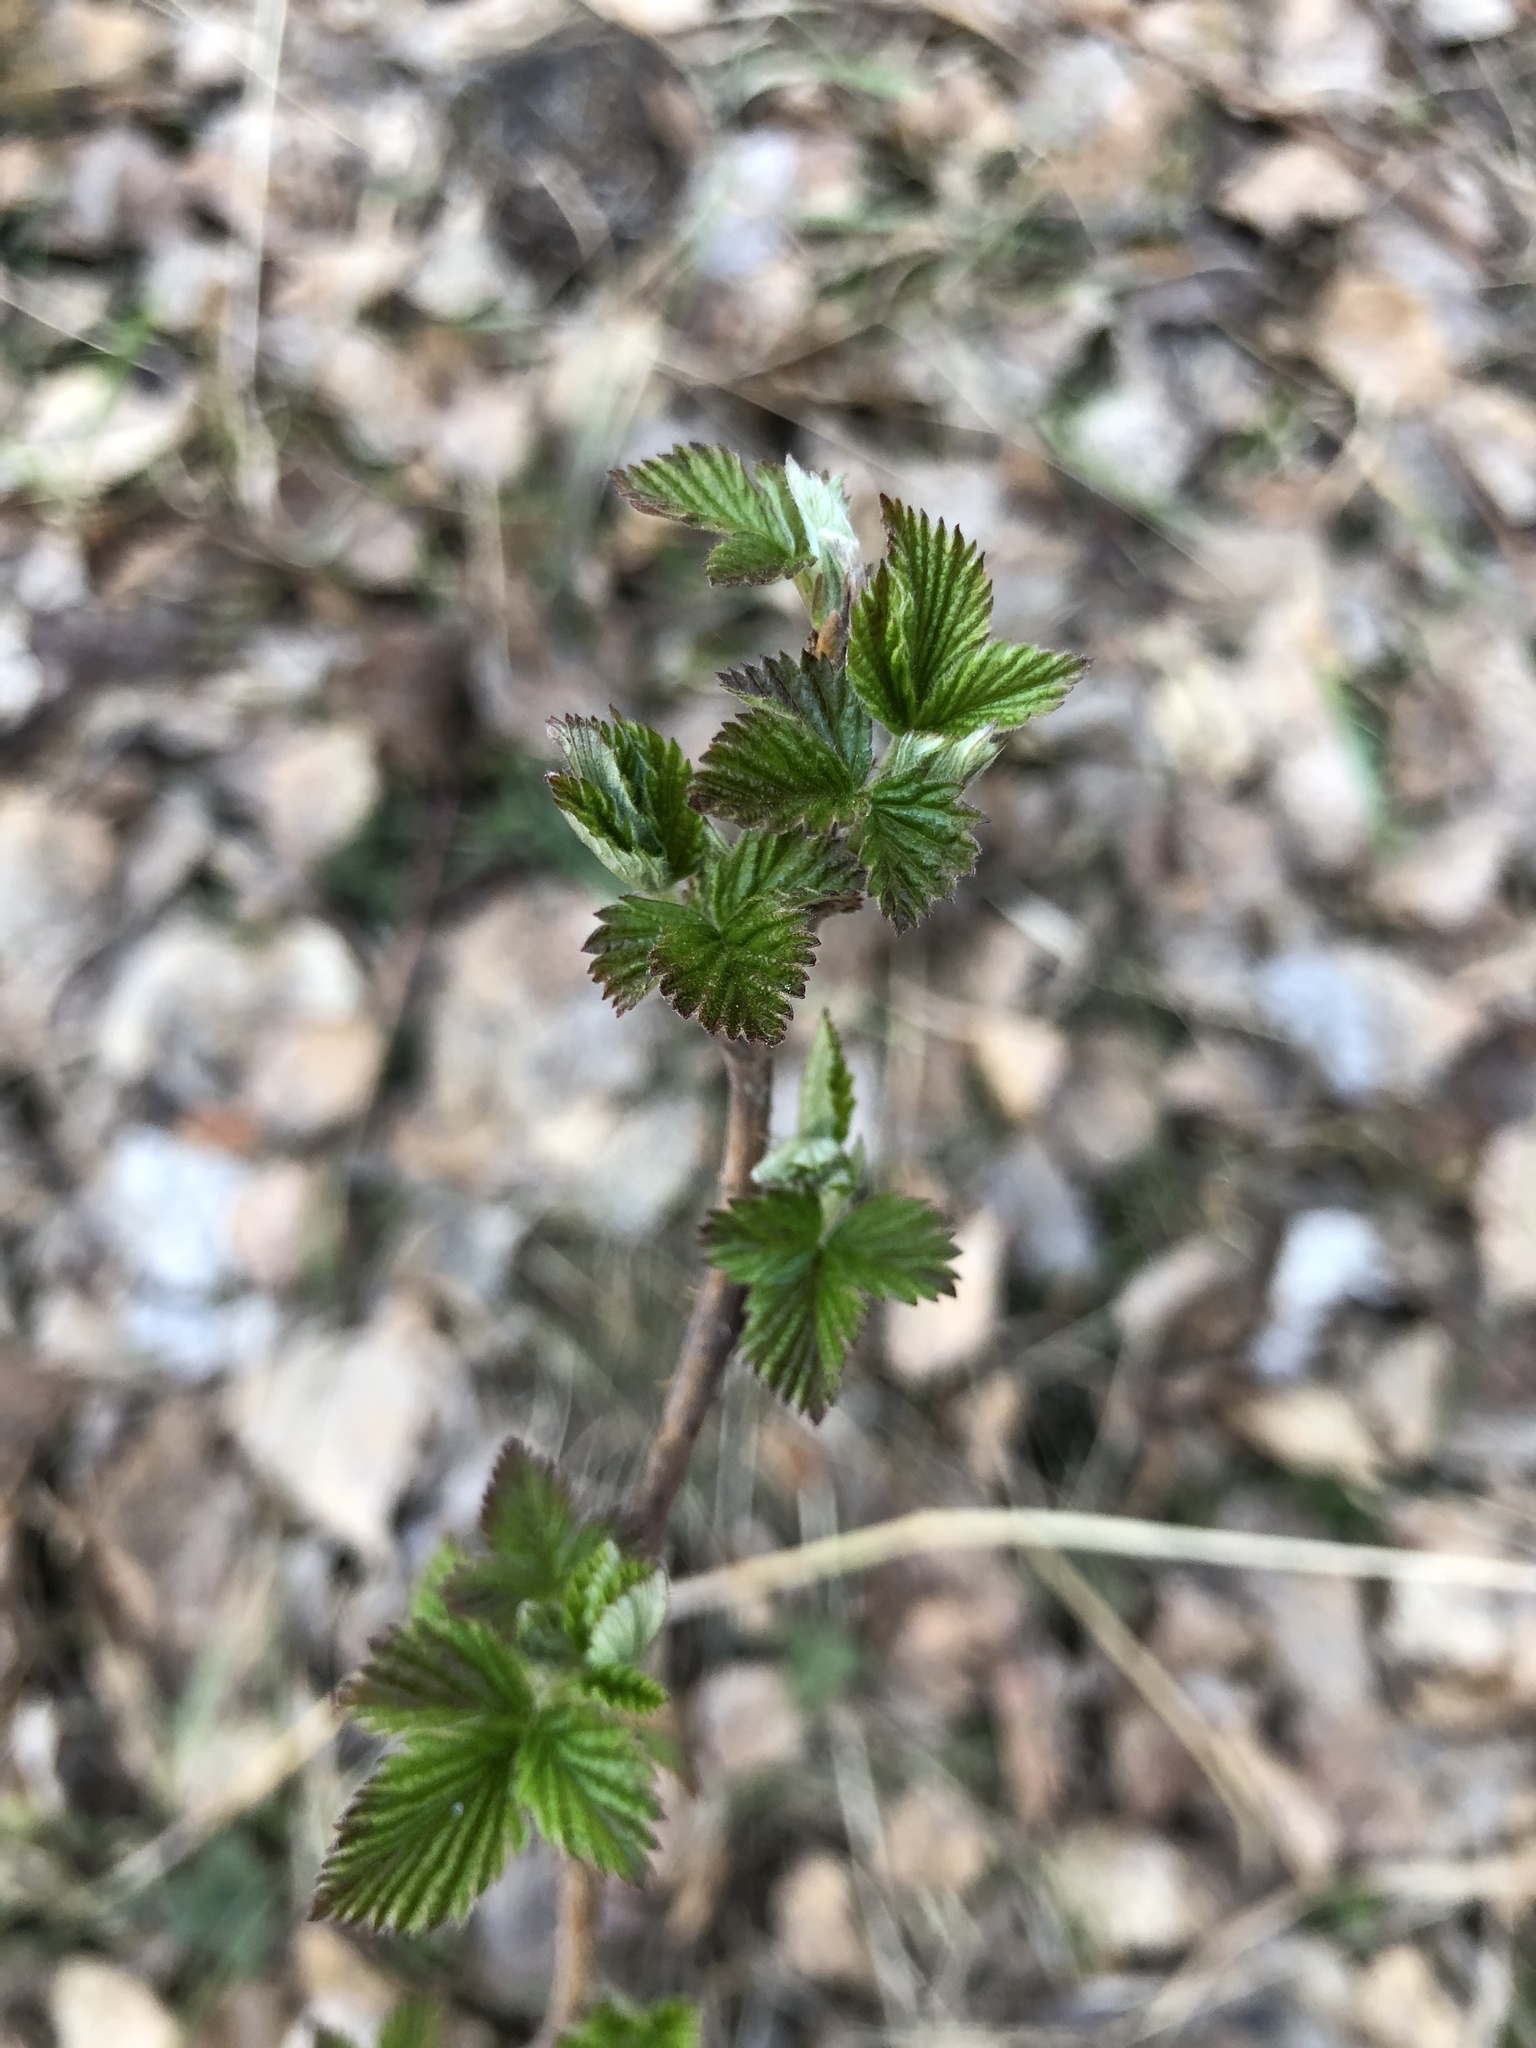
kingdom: Plantae
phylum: Tracheophyta
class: Magnoliopsida
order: Rosales
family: Rosaceae
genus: Rubus
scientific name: Rubus idaeus
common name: Raspberry
